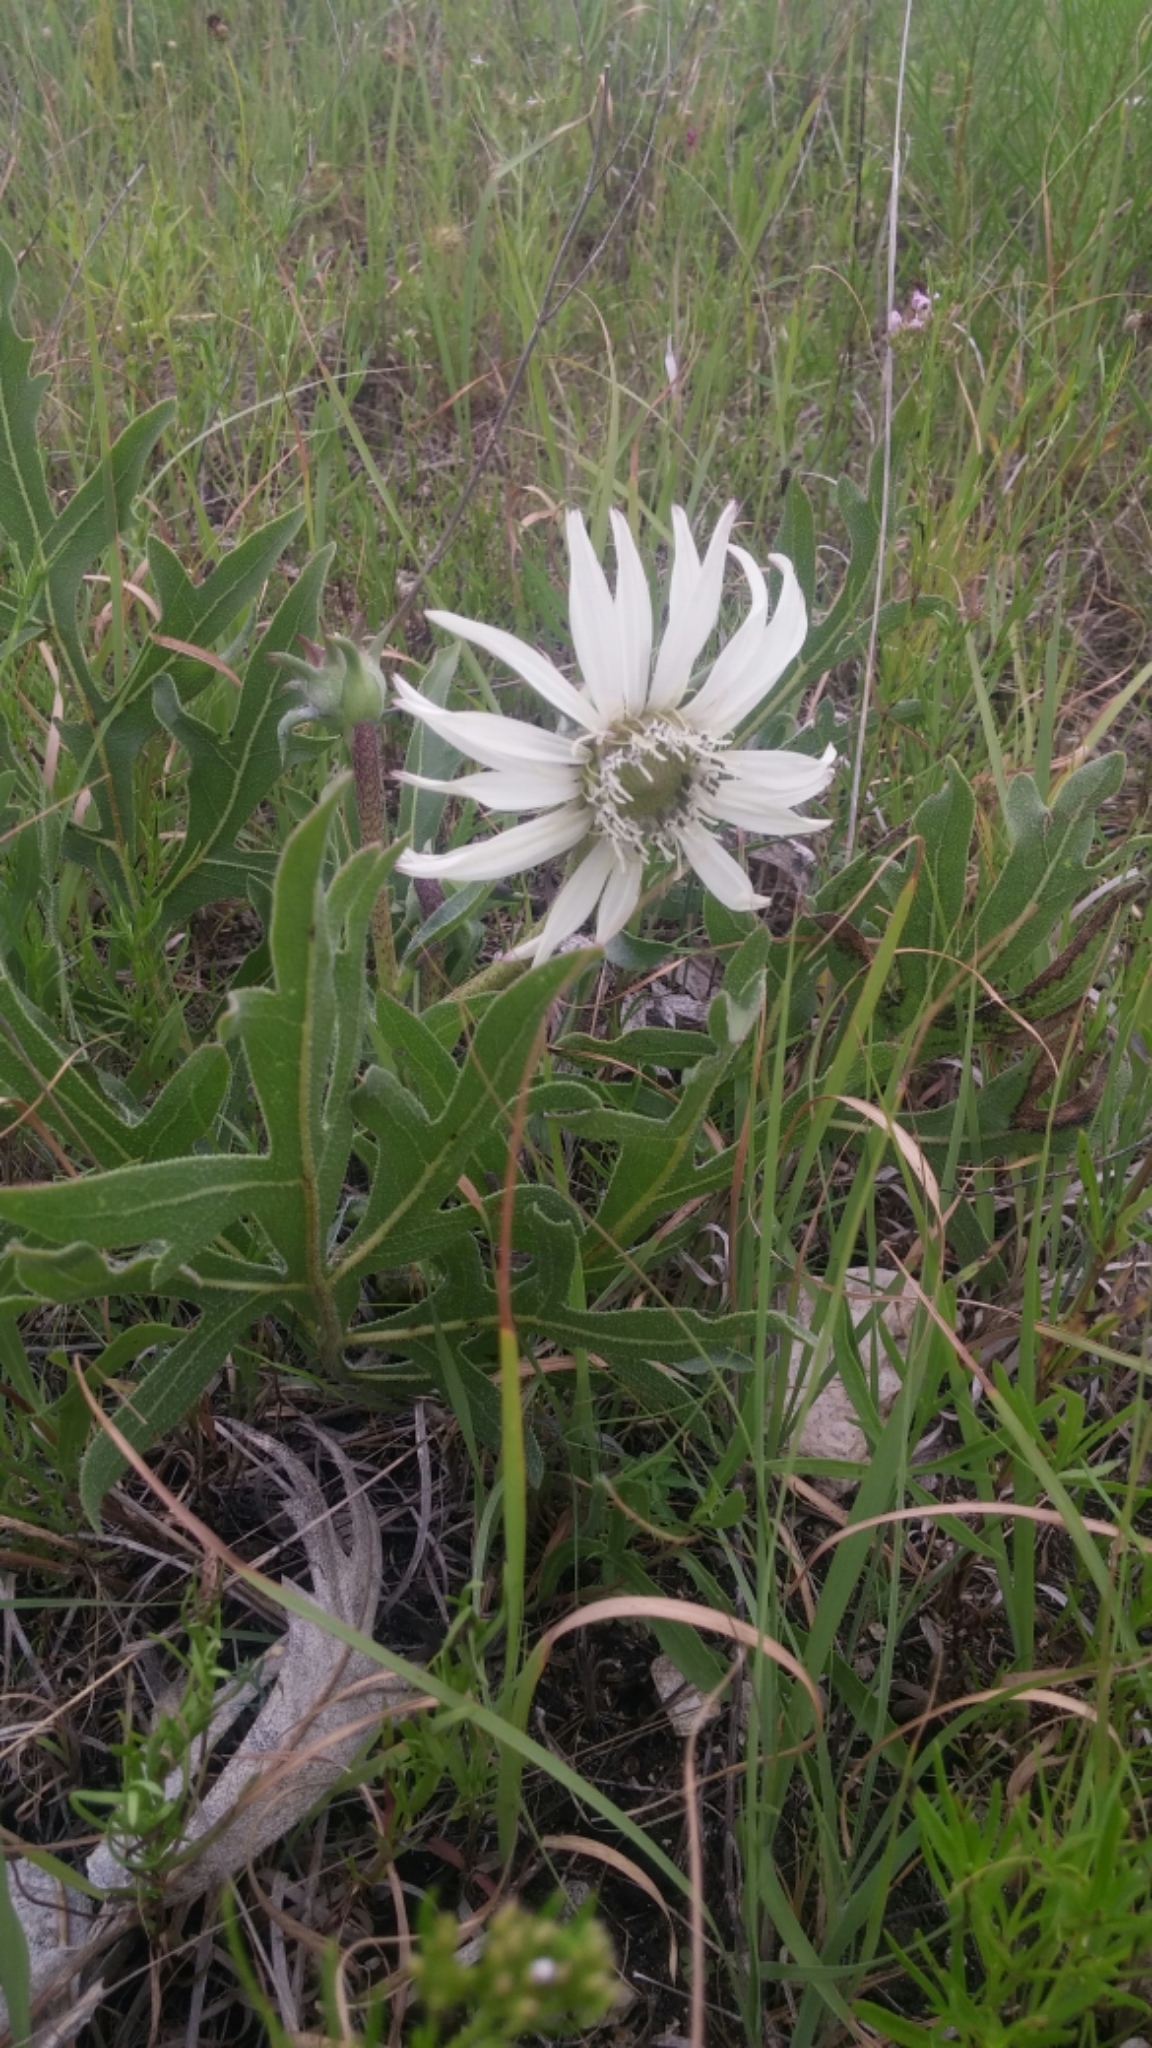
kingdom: Plantae
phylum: Tracheophyta
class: Magnoliopsida
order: Asterales
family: Asteraceae
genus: Silphium
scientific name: Silphium albiflorum
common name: White rosinweed
